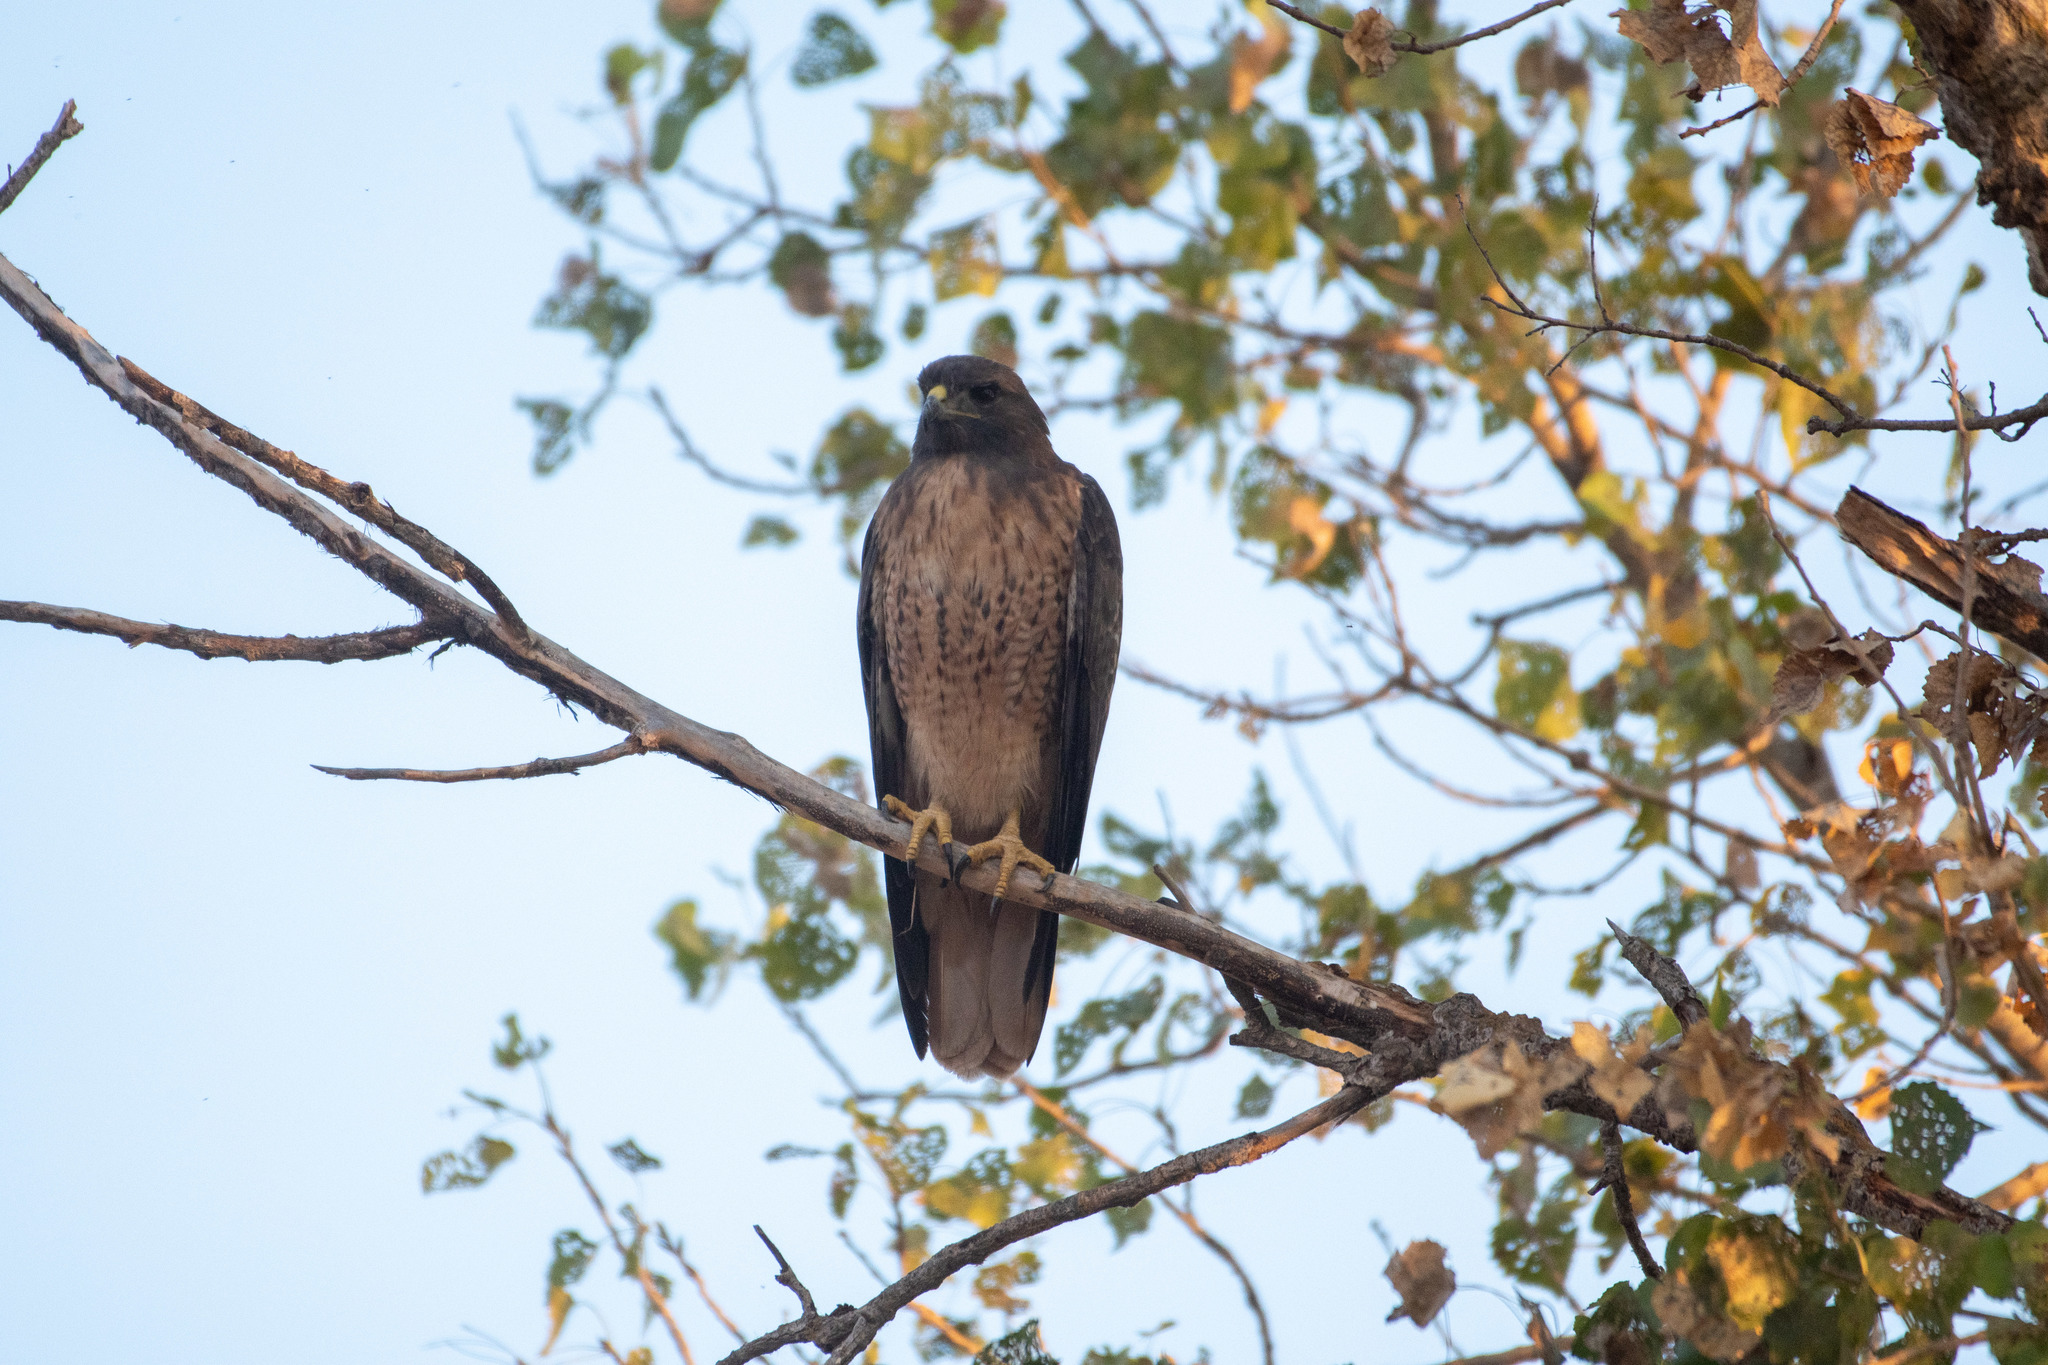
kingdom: Animalia
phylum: Chordata
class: Aves
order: Accipitriformes
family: Accipitridae
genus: Buteo
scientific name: Buteo jamaicensis
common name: Red-tailed hawk
